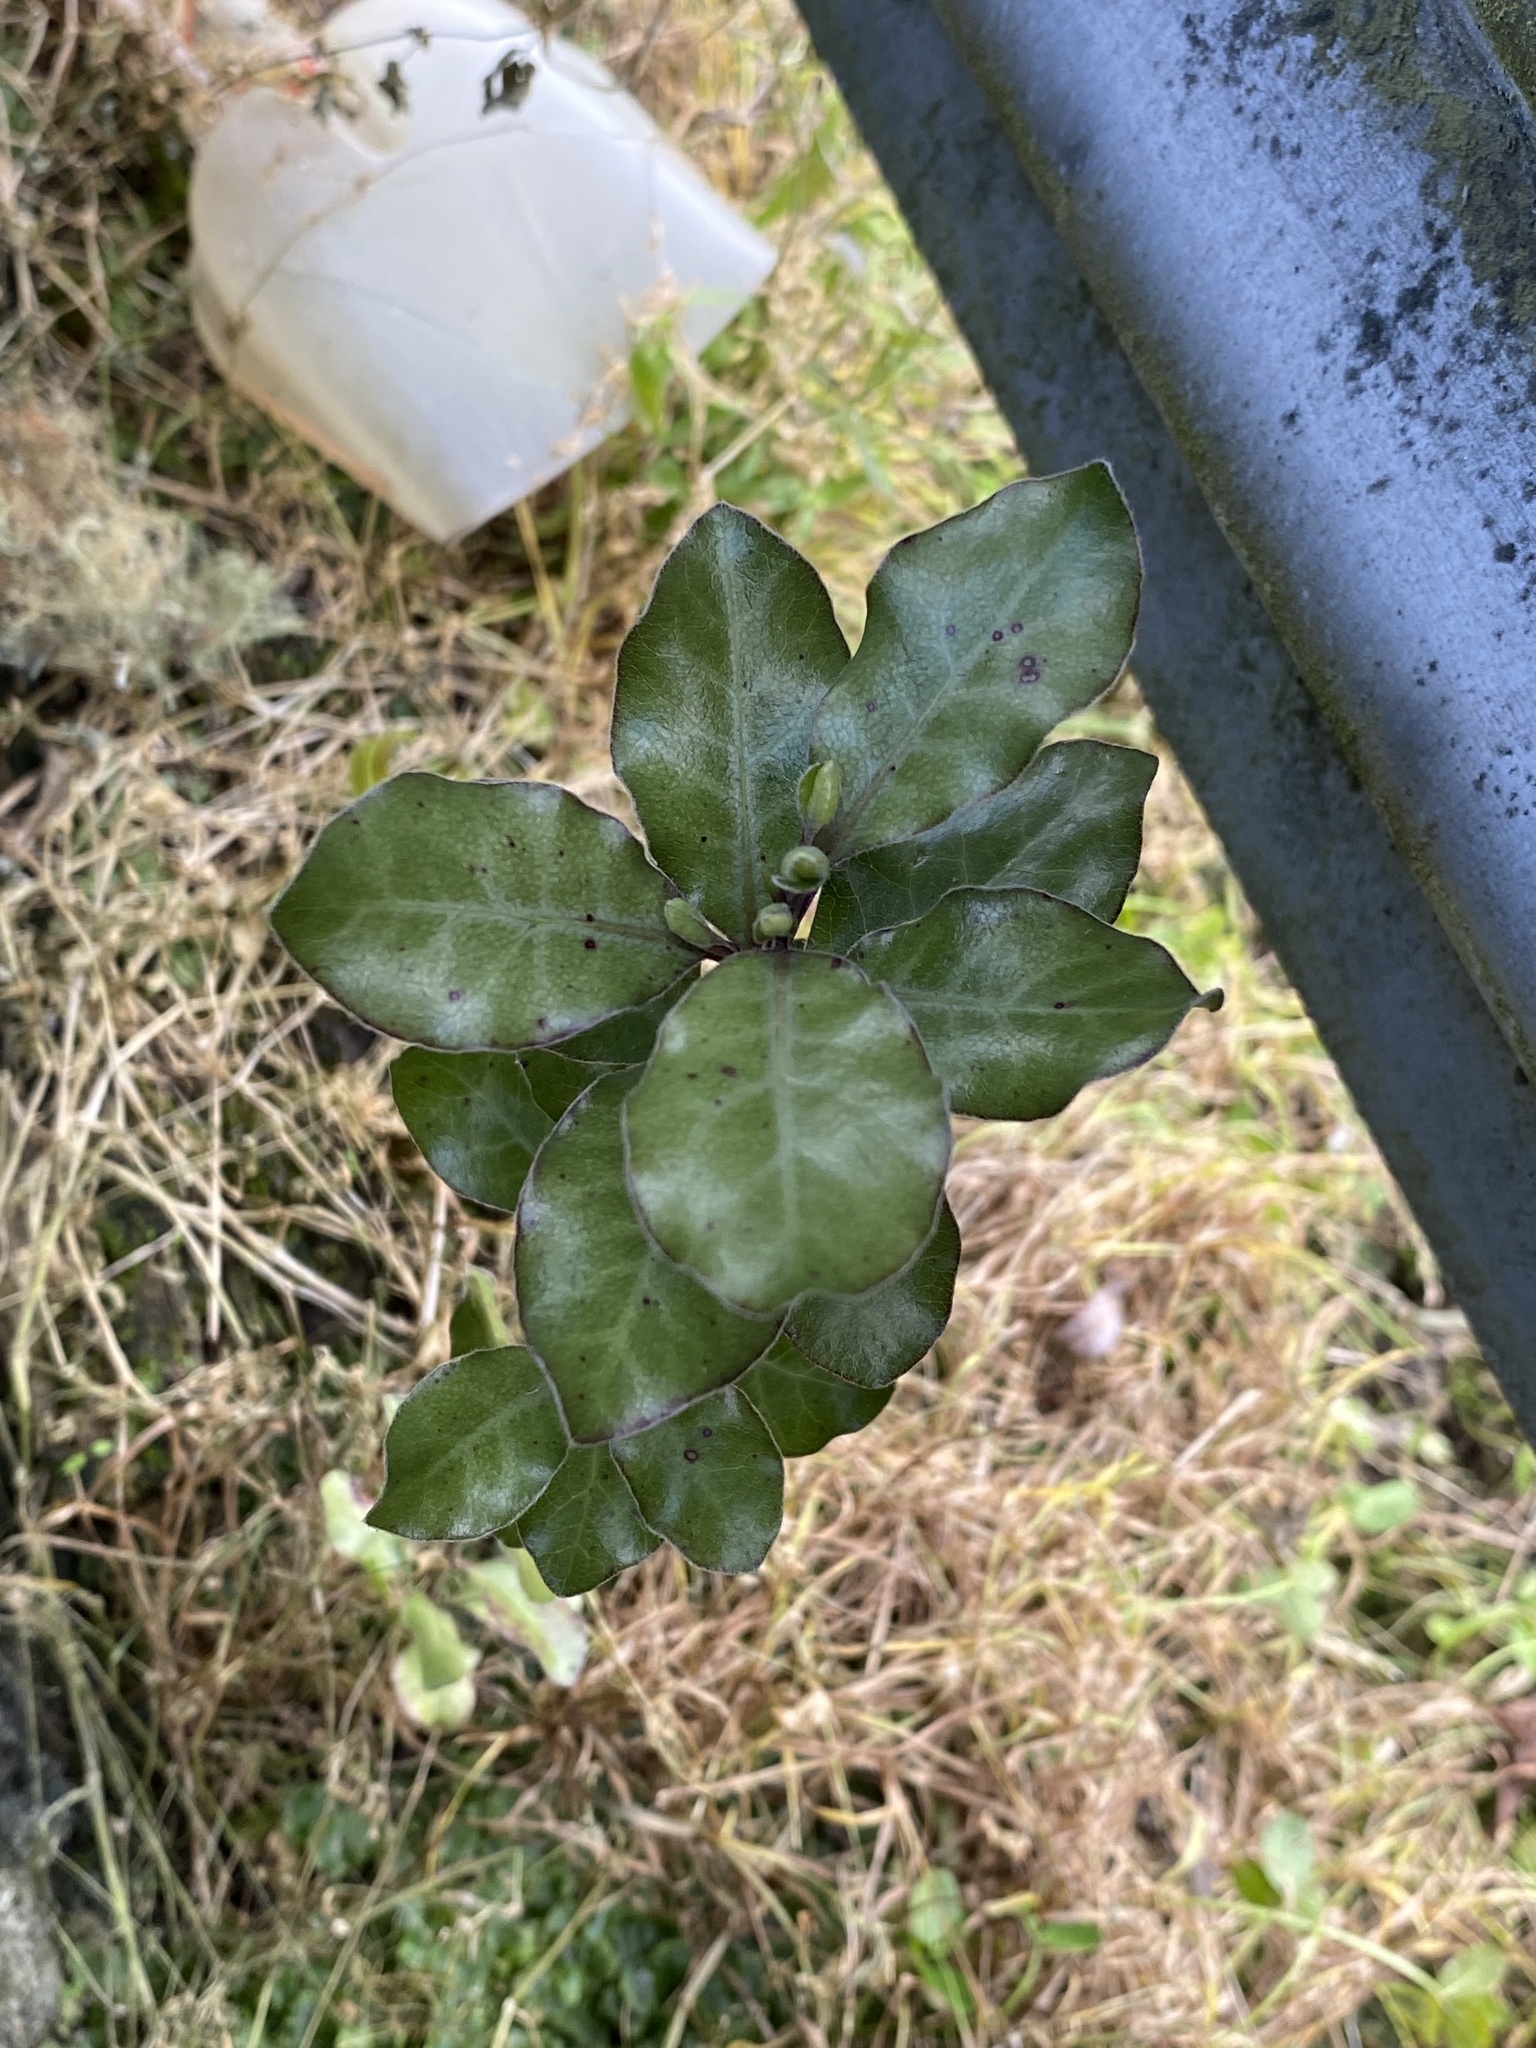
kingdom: Plantae
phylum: Tracheophyta
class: Magnoliopsida
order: Apiales
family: Pittosporaceae
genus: Pittosporum
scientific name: Pittosporum tenuifolium
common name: Kohuhu
